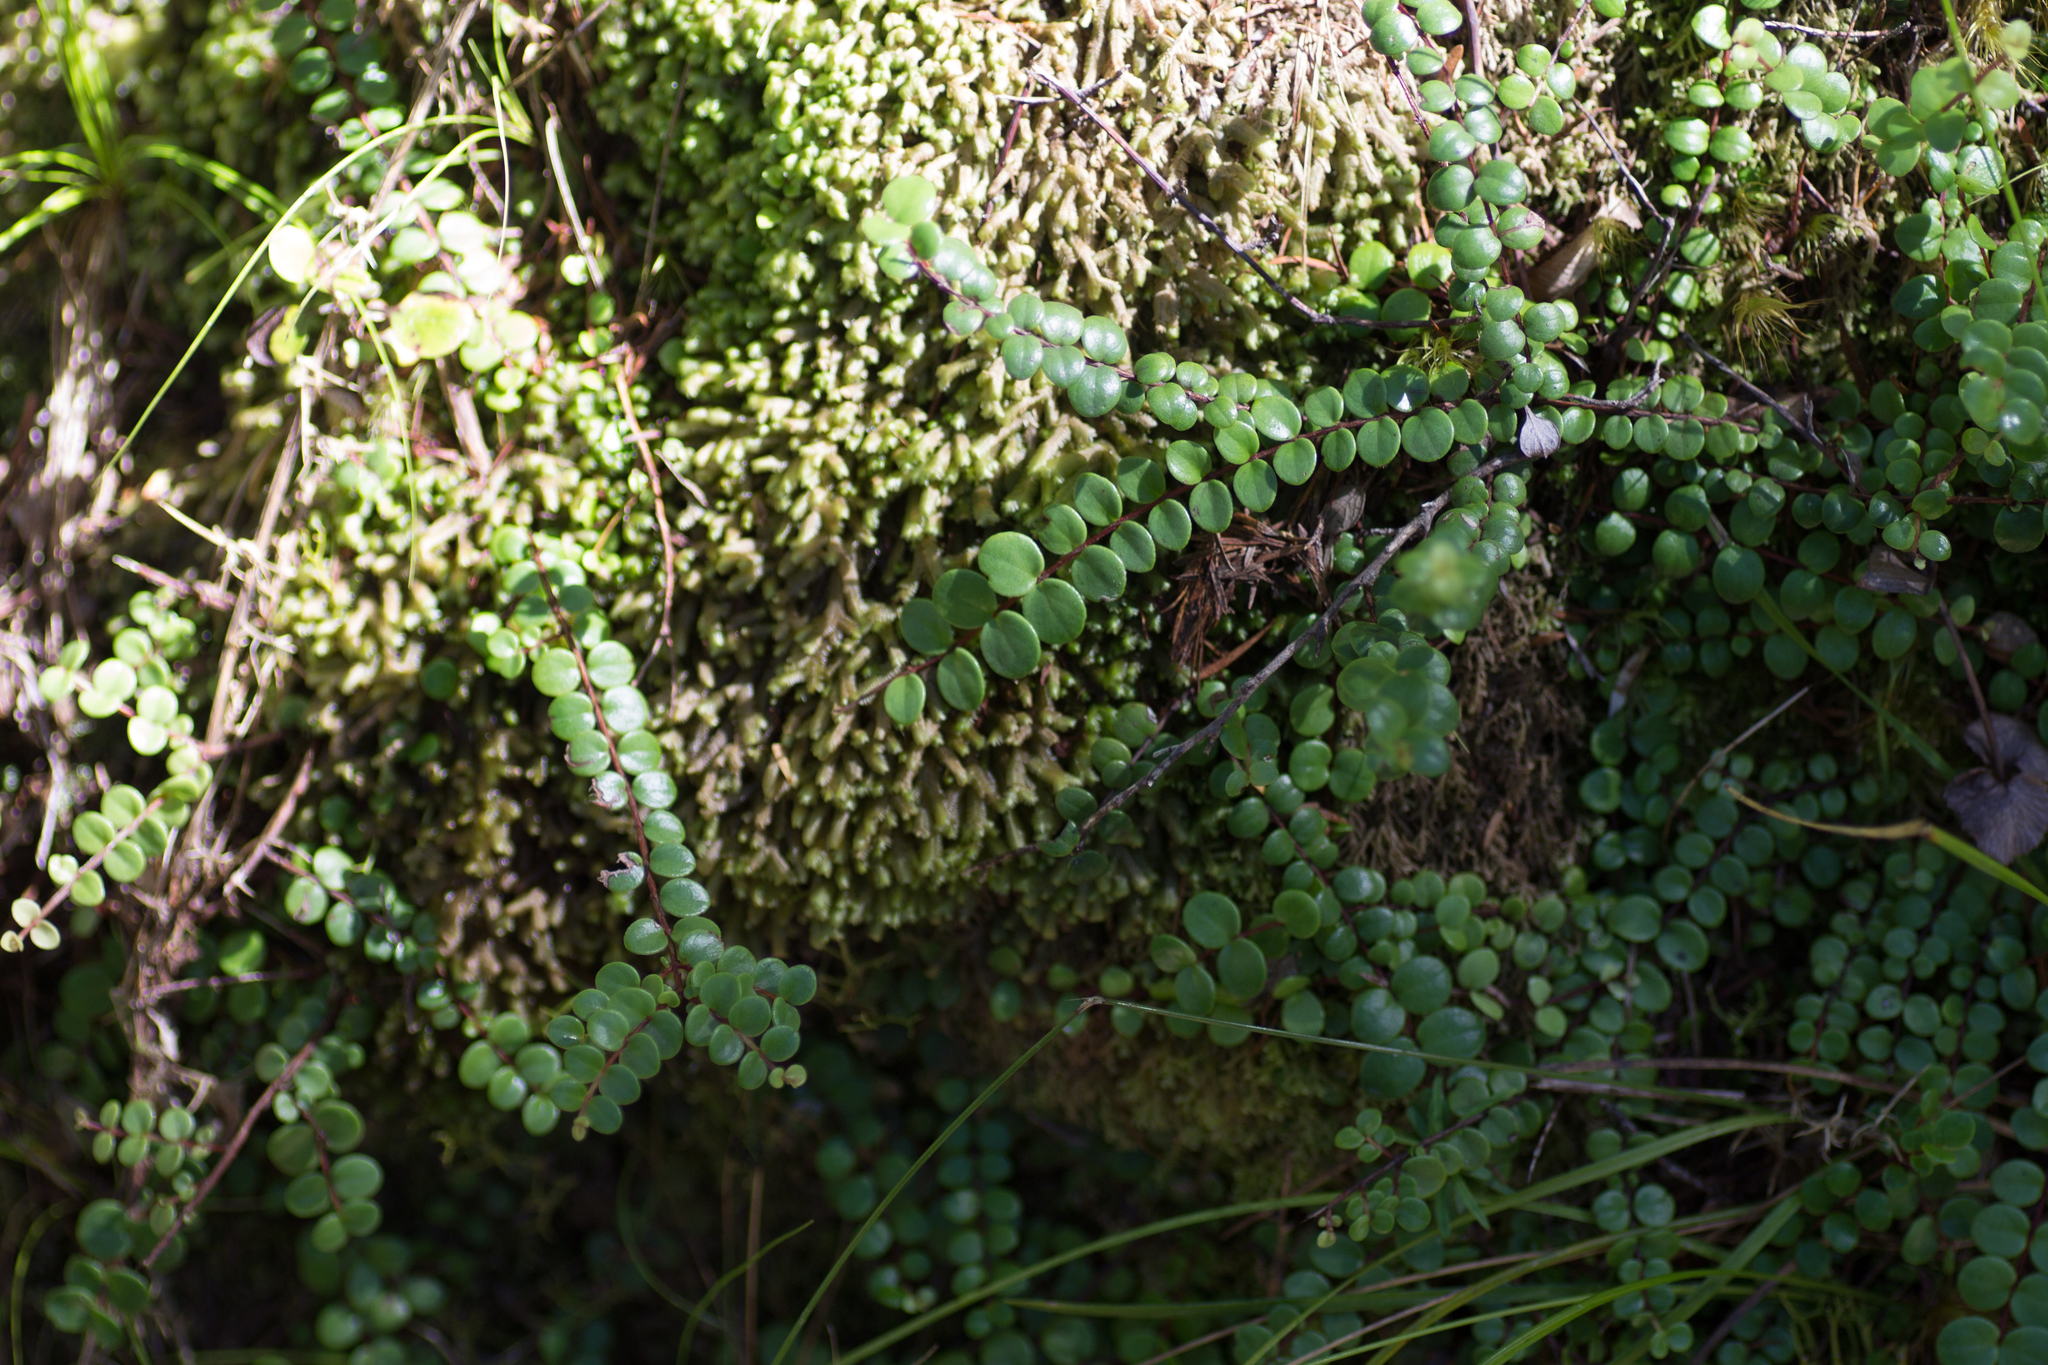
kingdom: Plantae
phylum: Tracheophyta
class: Magnoliopsida
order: Myrtales
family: Myrtaceae
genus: Metrosideros
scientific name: Metrosideros perforata
